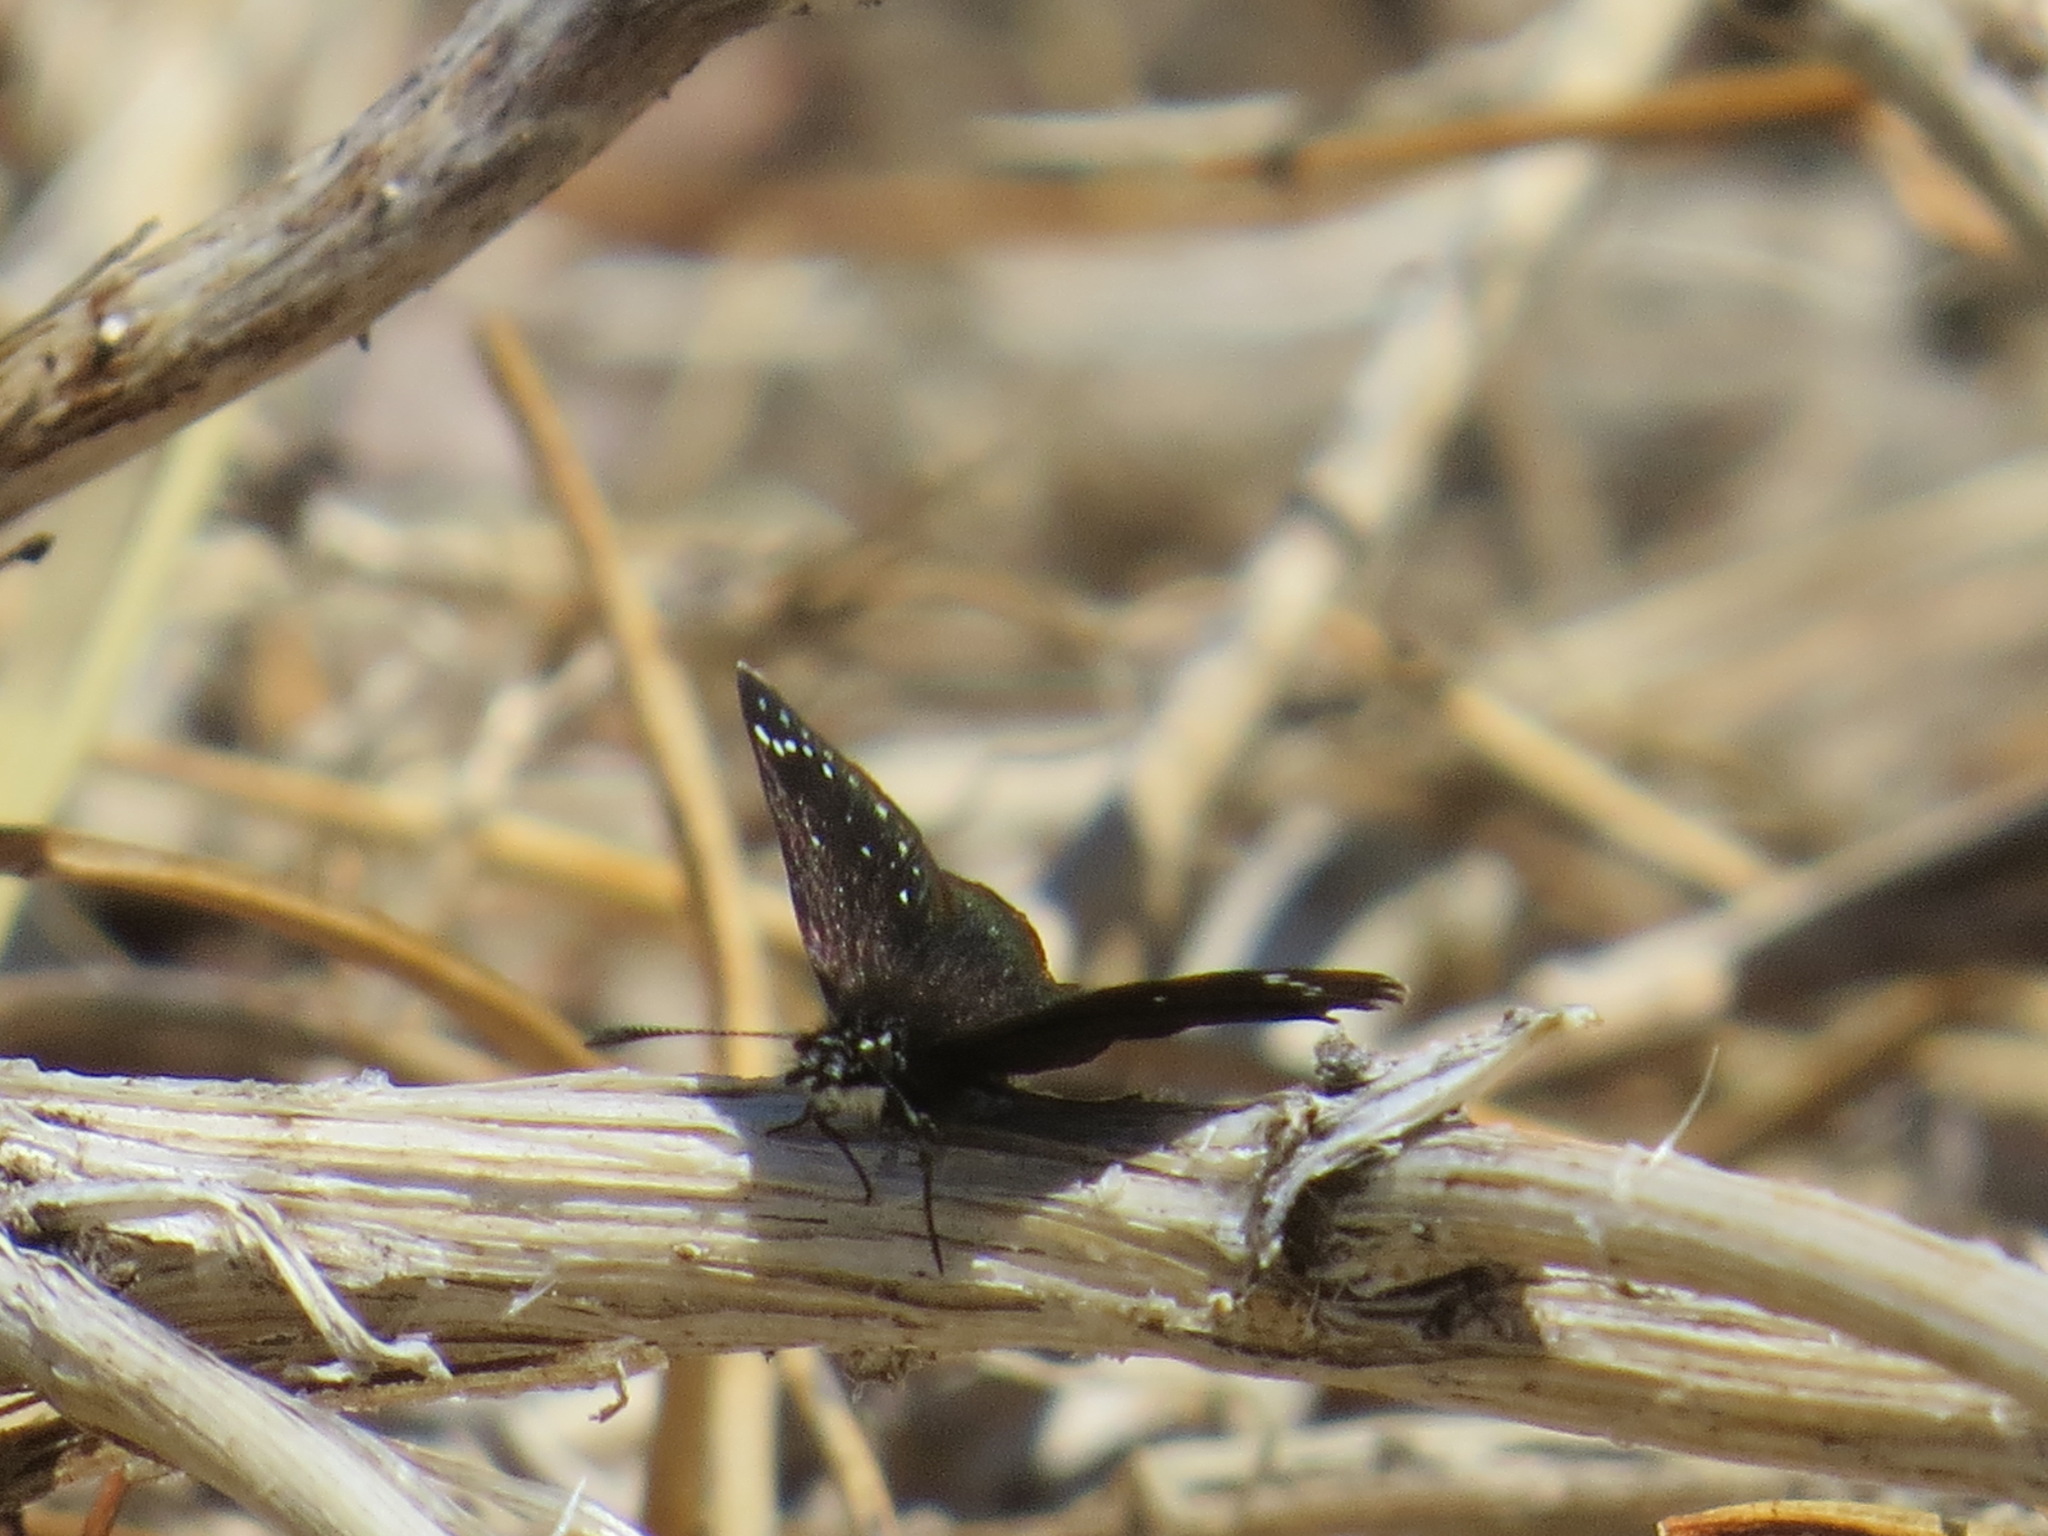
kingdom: Animalia
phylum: Arthropoda
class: Insecta
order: Lepidoptera
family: Hesperiidae
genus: Pholisora
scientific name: Pholisora catullus
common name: Common sootywing
